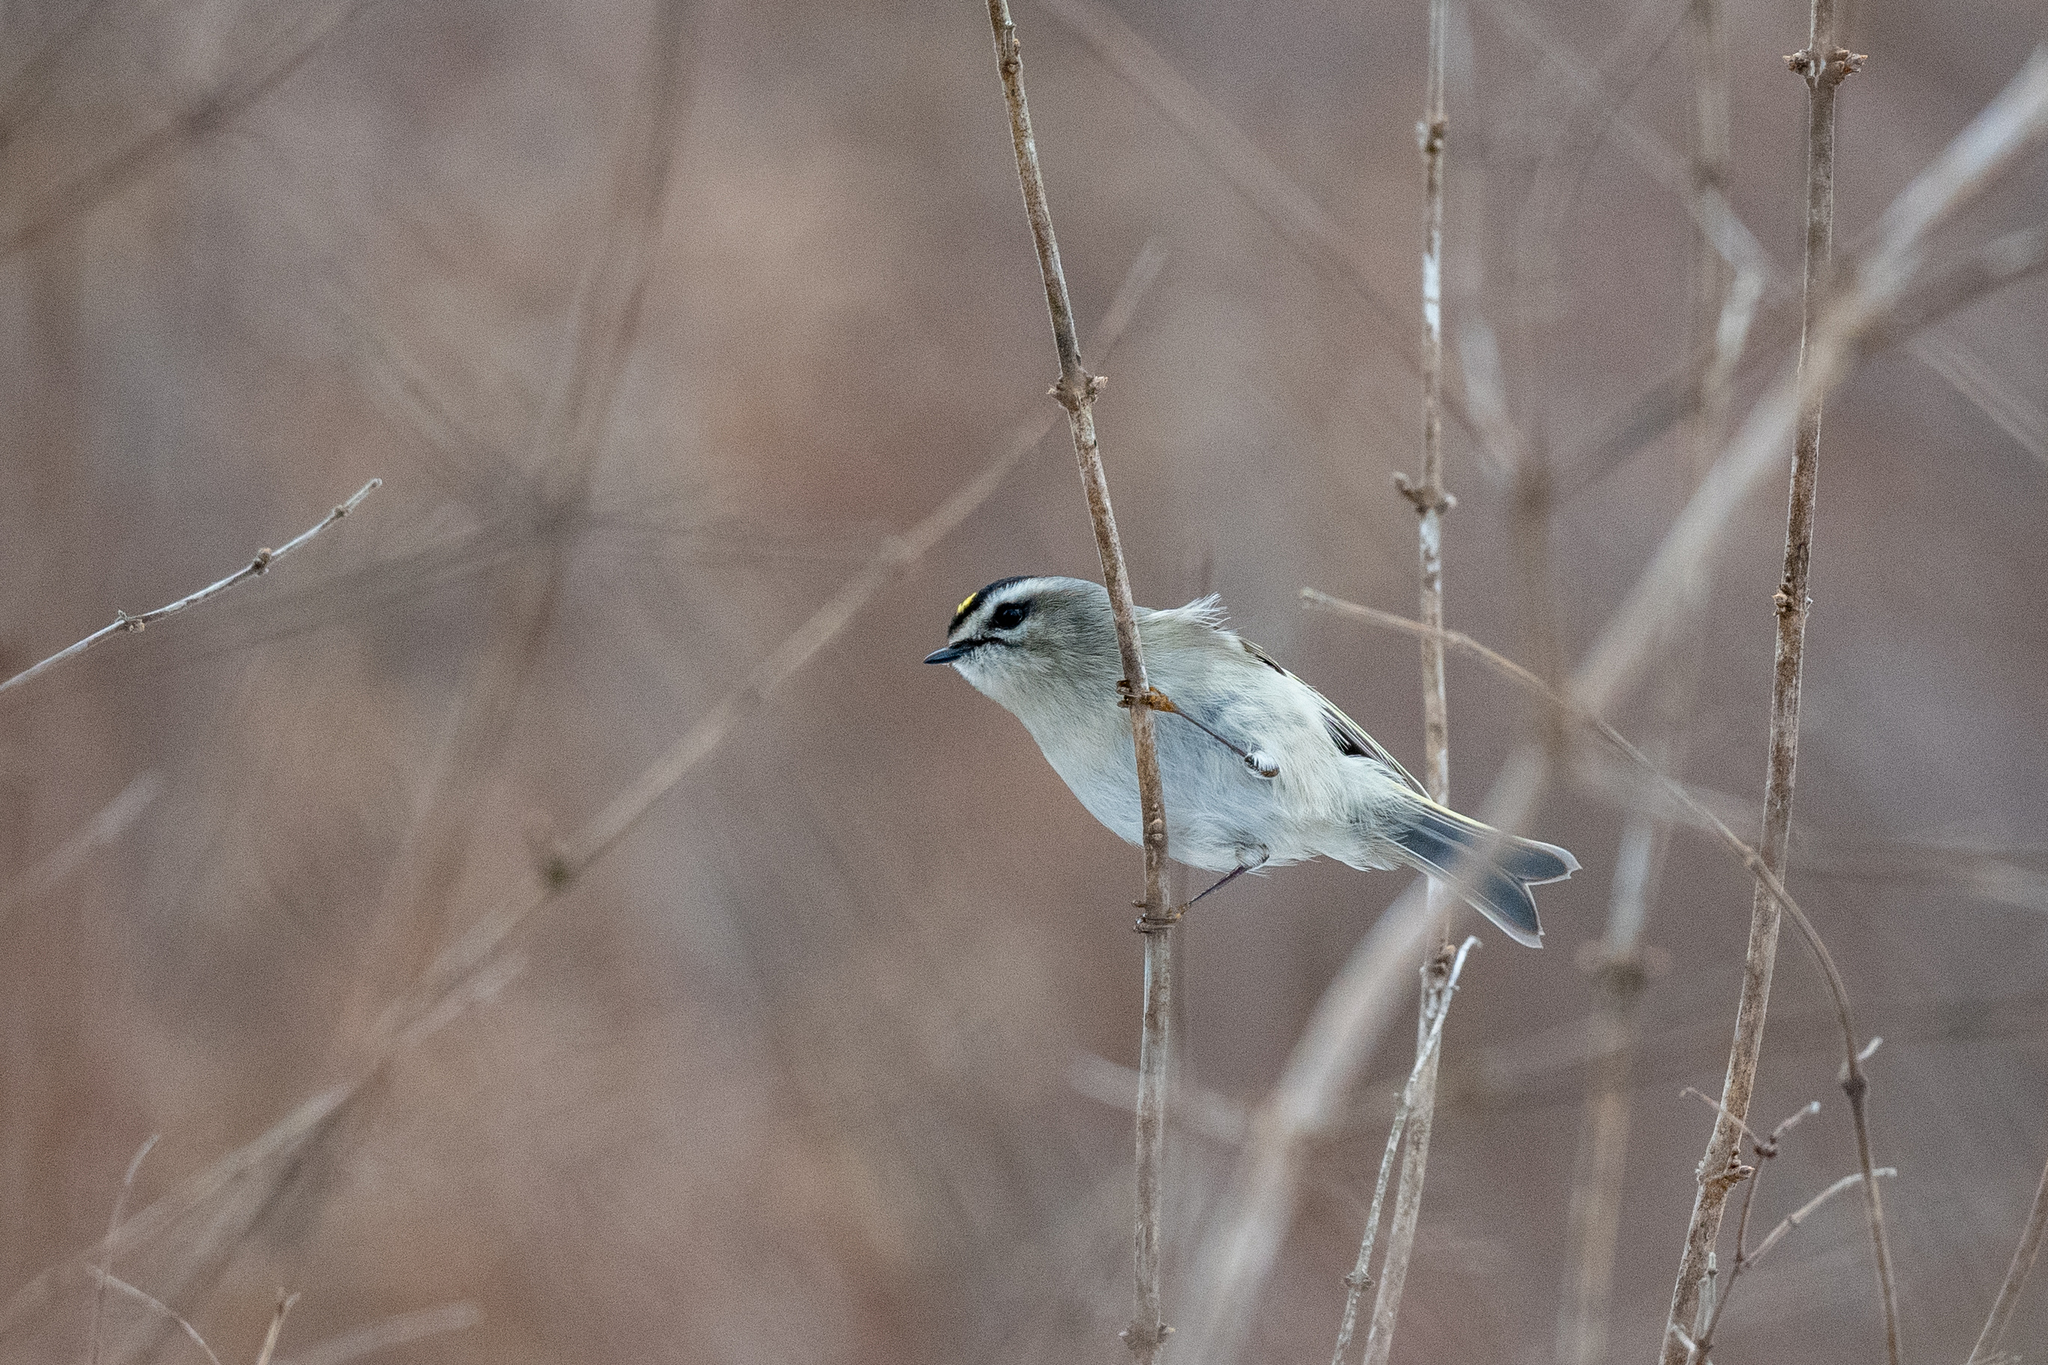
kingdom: Animalia
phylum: Chordata
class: Aves
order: Passeriformes
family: Regulidae
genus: Regulus
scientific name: Regulus satrapa
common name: Golden-crowned kinglet
